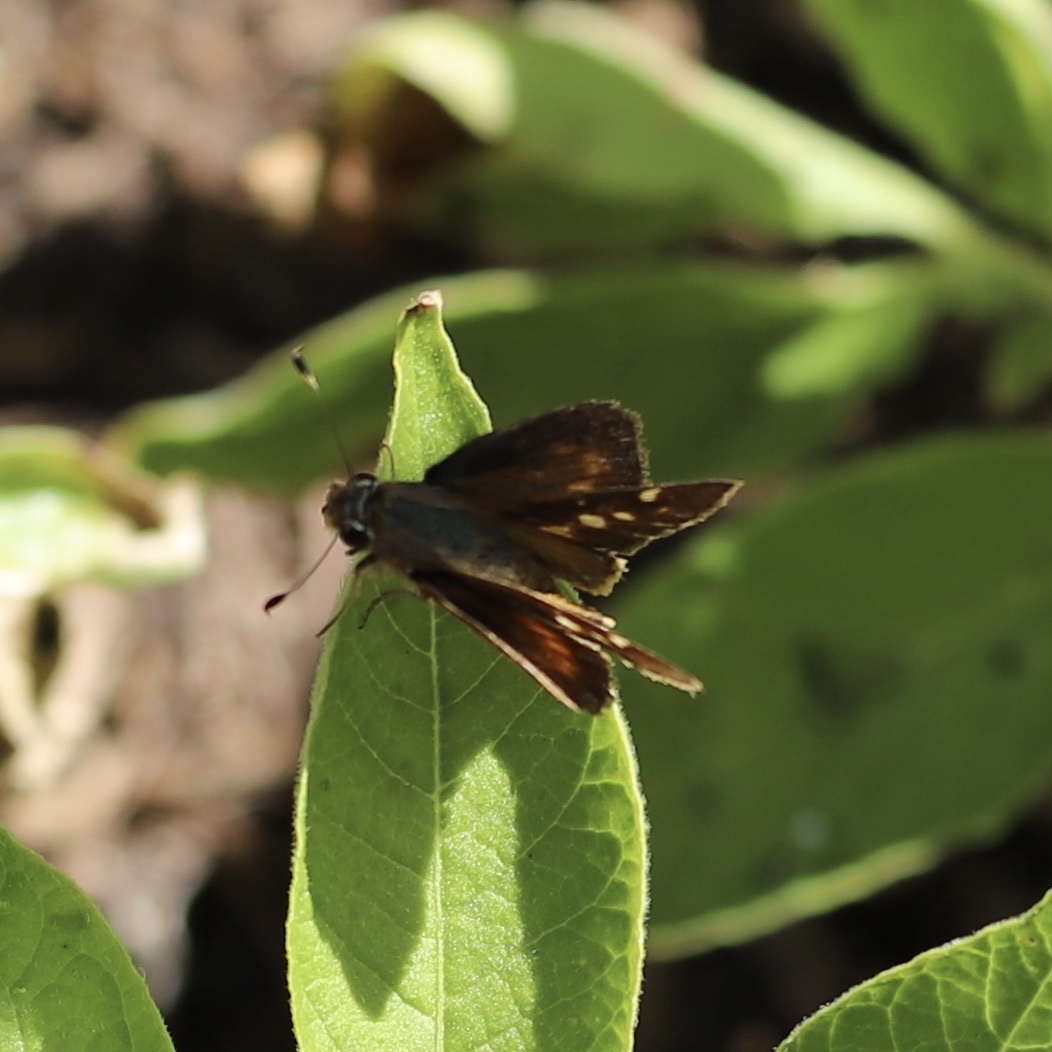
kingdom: Animalia
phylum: Arthropoda
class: Insecta
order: Lepidoptera
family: Hesperiidae
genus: Lon
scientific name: Lon melane
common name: Umber skipper
